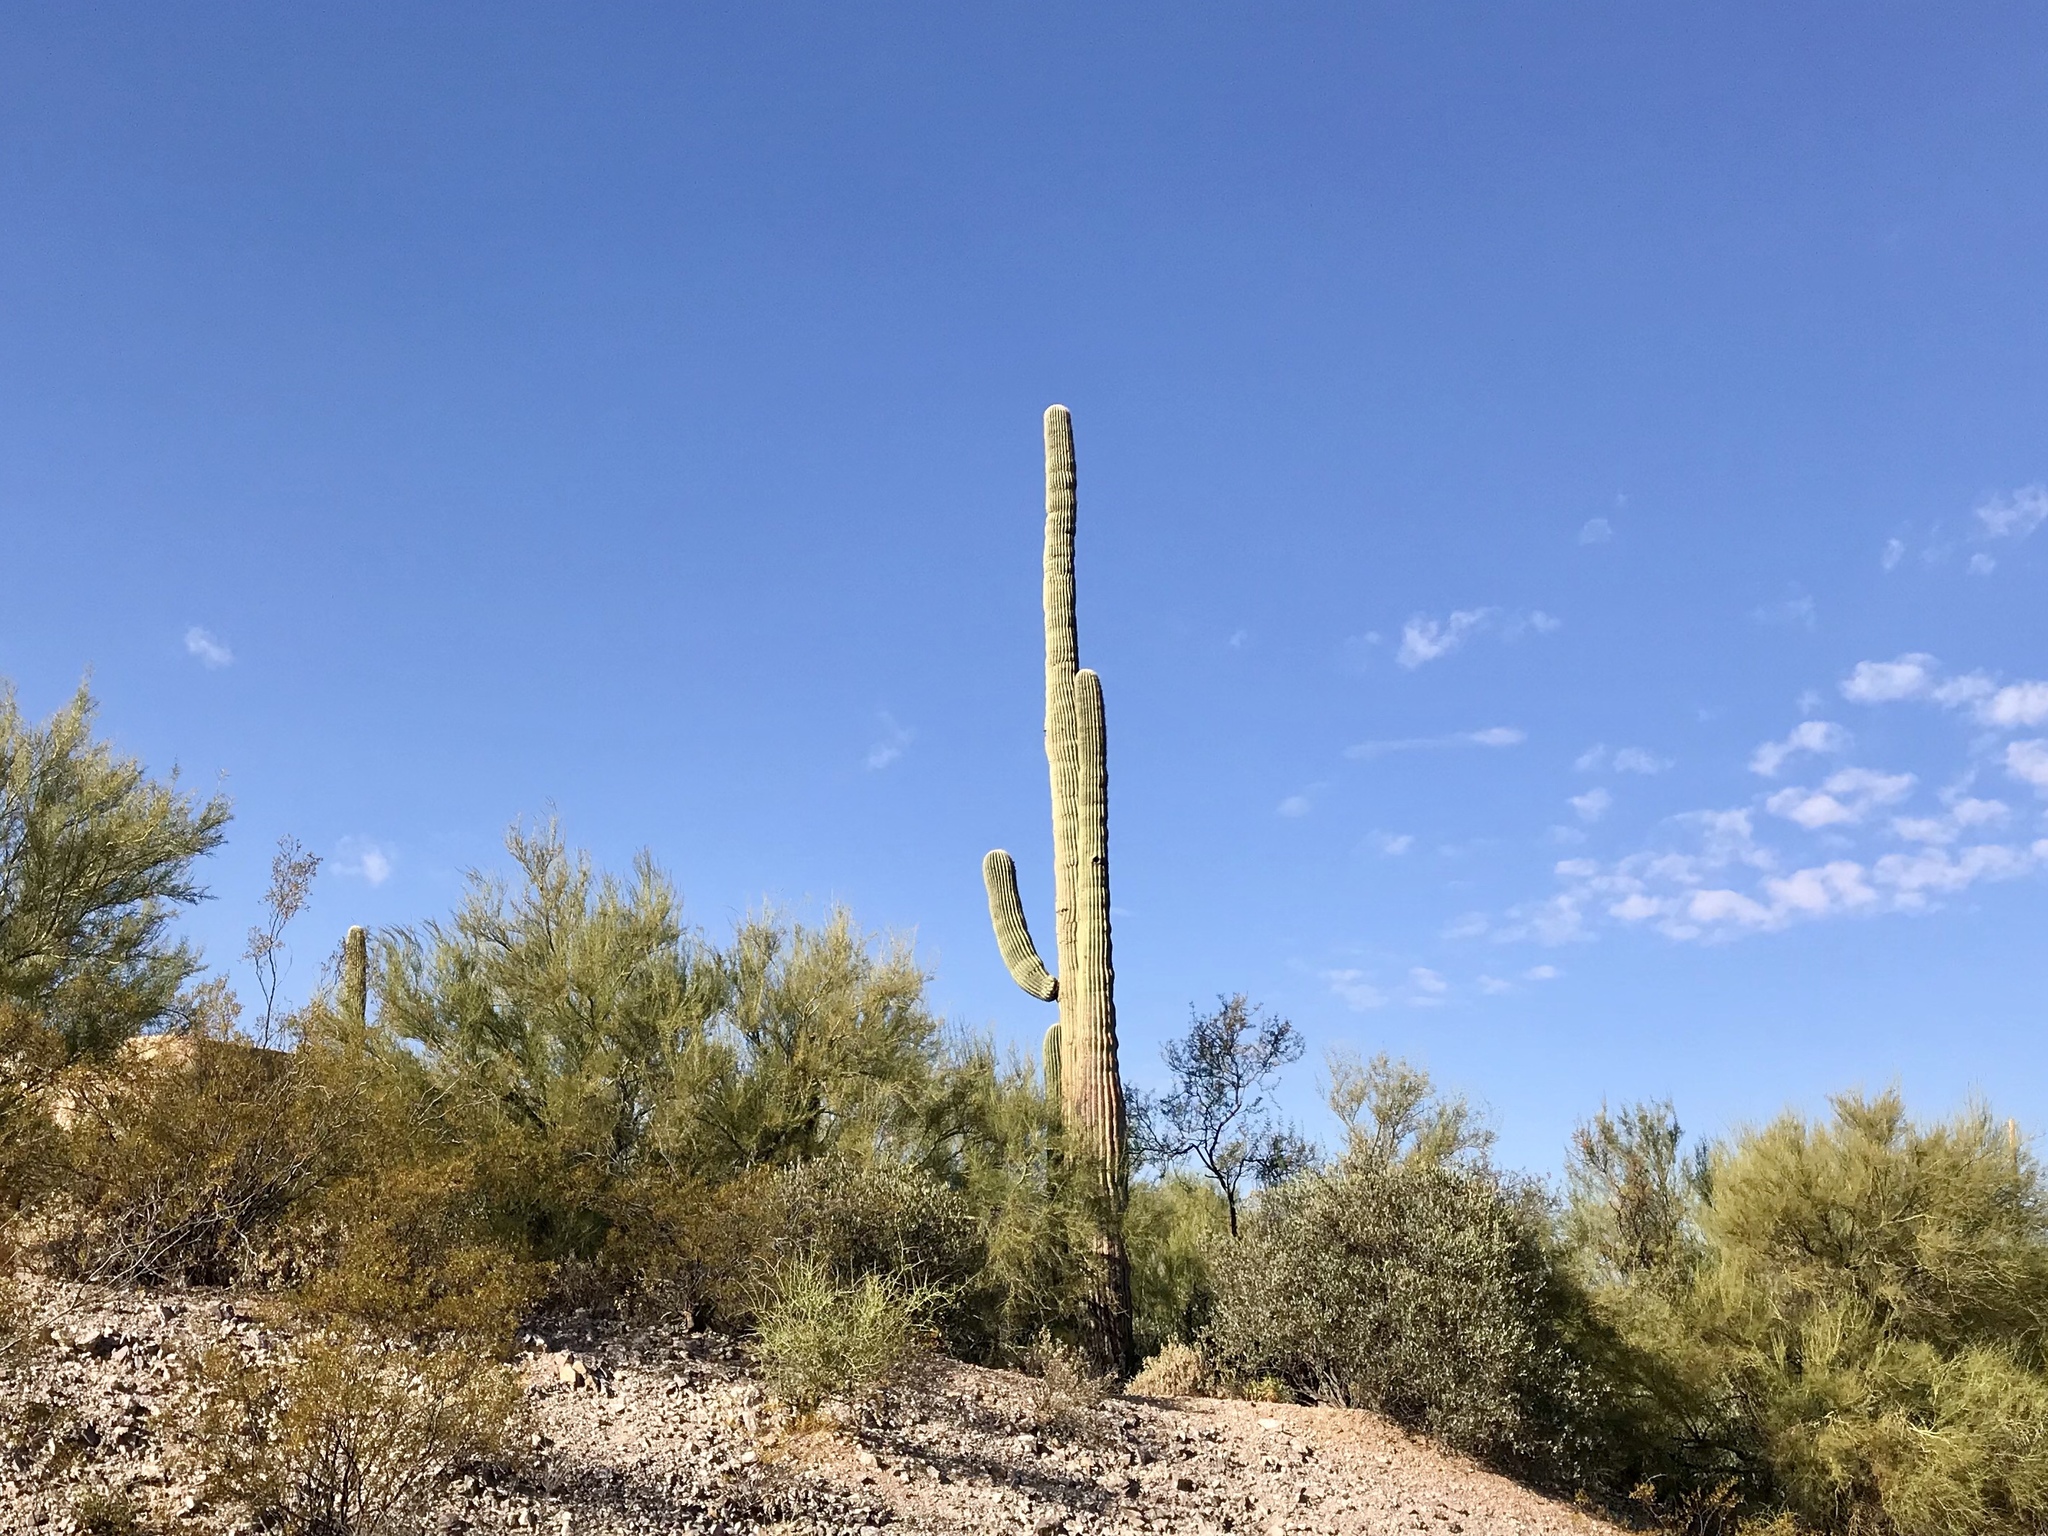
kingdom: Plantae
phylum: Tracheophyta
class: Magnoliopsida
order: Caryophyllales
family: Cactaceae
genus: Carnegiea
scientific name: Carnegiea gigantea
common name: Saguaro
